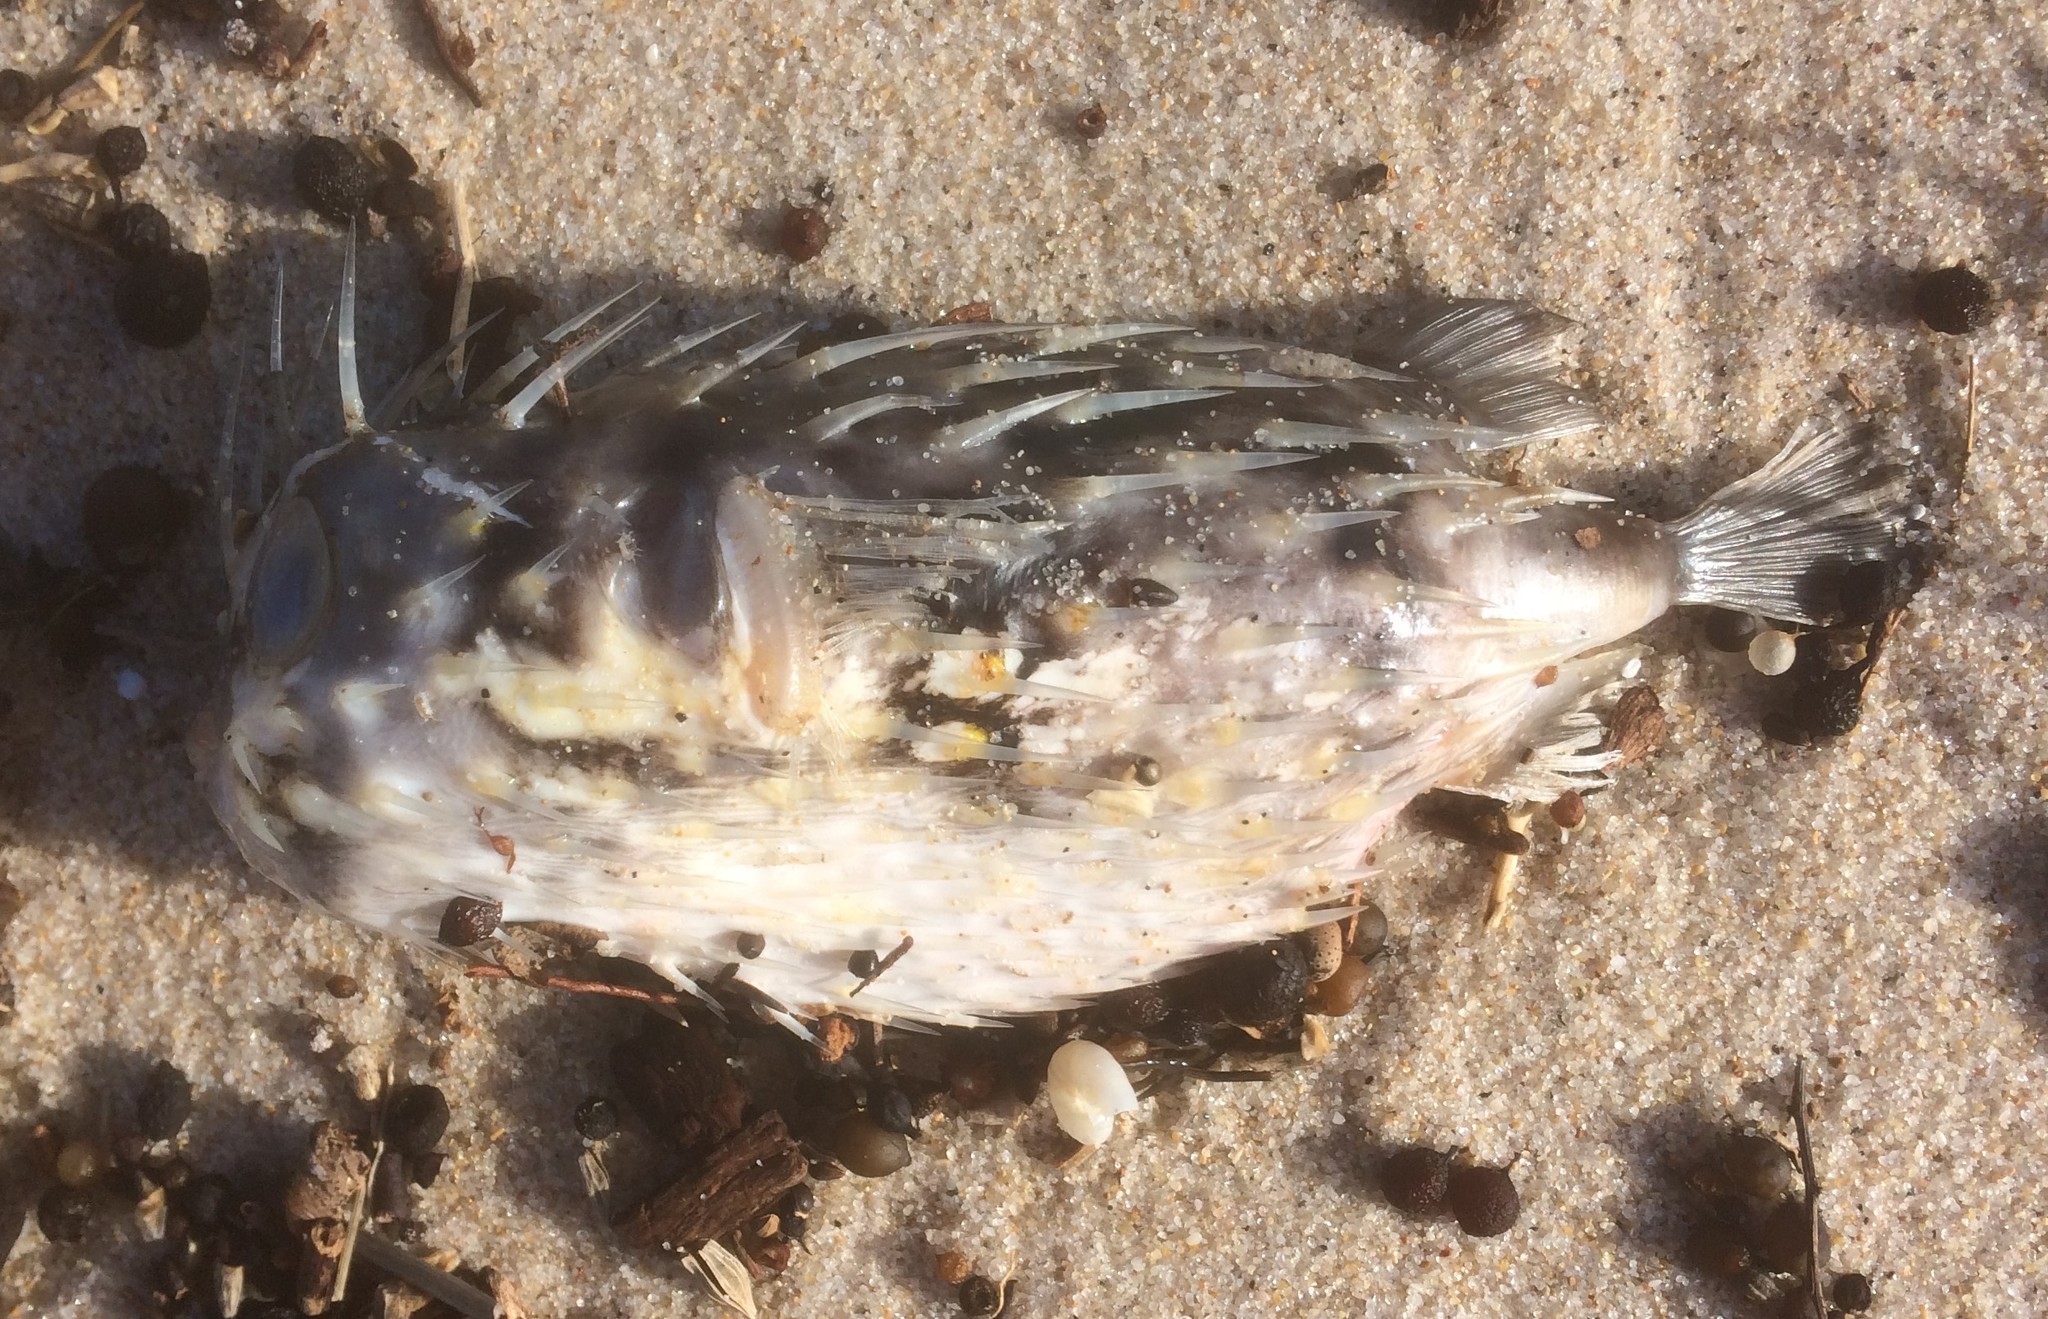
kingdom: Animalia
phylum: Chordata
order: Tetraodontiformes
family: Diodontidae
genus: Diodon
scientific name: Diodon nicthemerus
